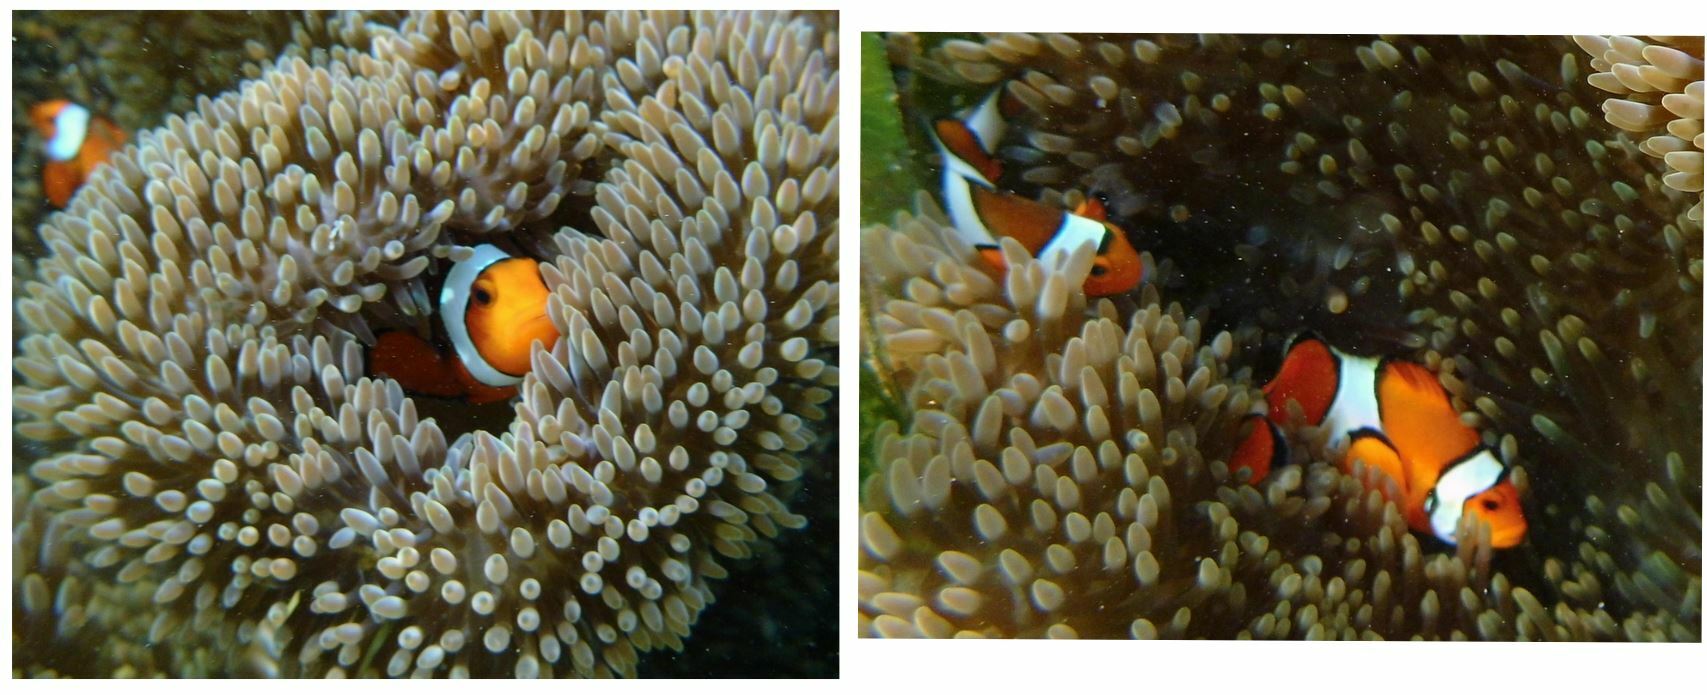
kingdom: Animalia
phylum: Chordata
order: Perciformes
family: Pomacentridae
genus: Amphiprion
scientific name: Amphiprion ocellaris
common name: Clown anemonefish
